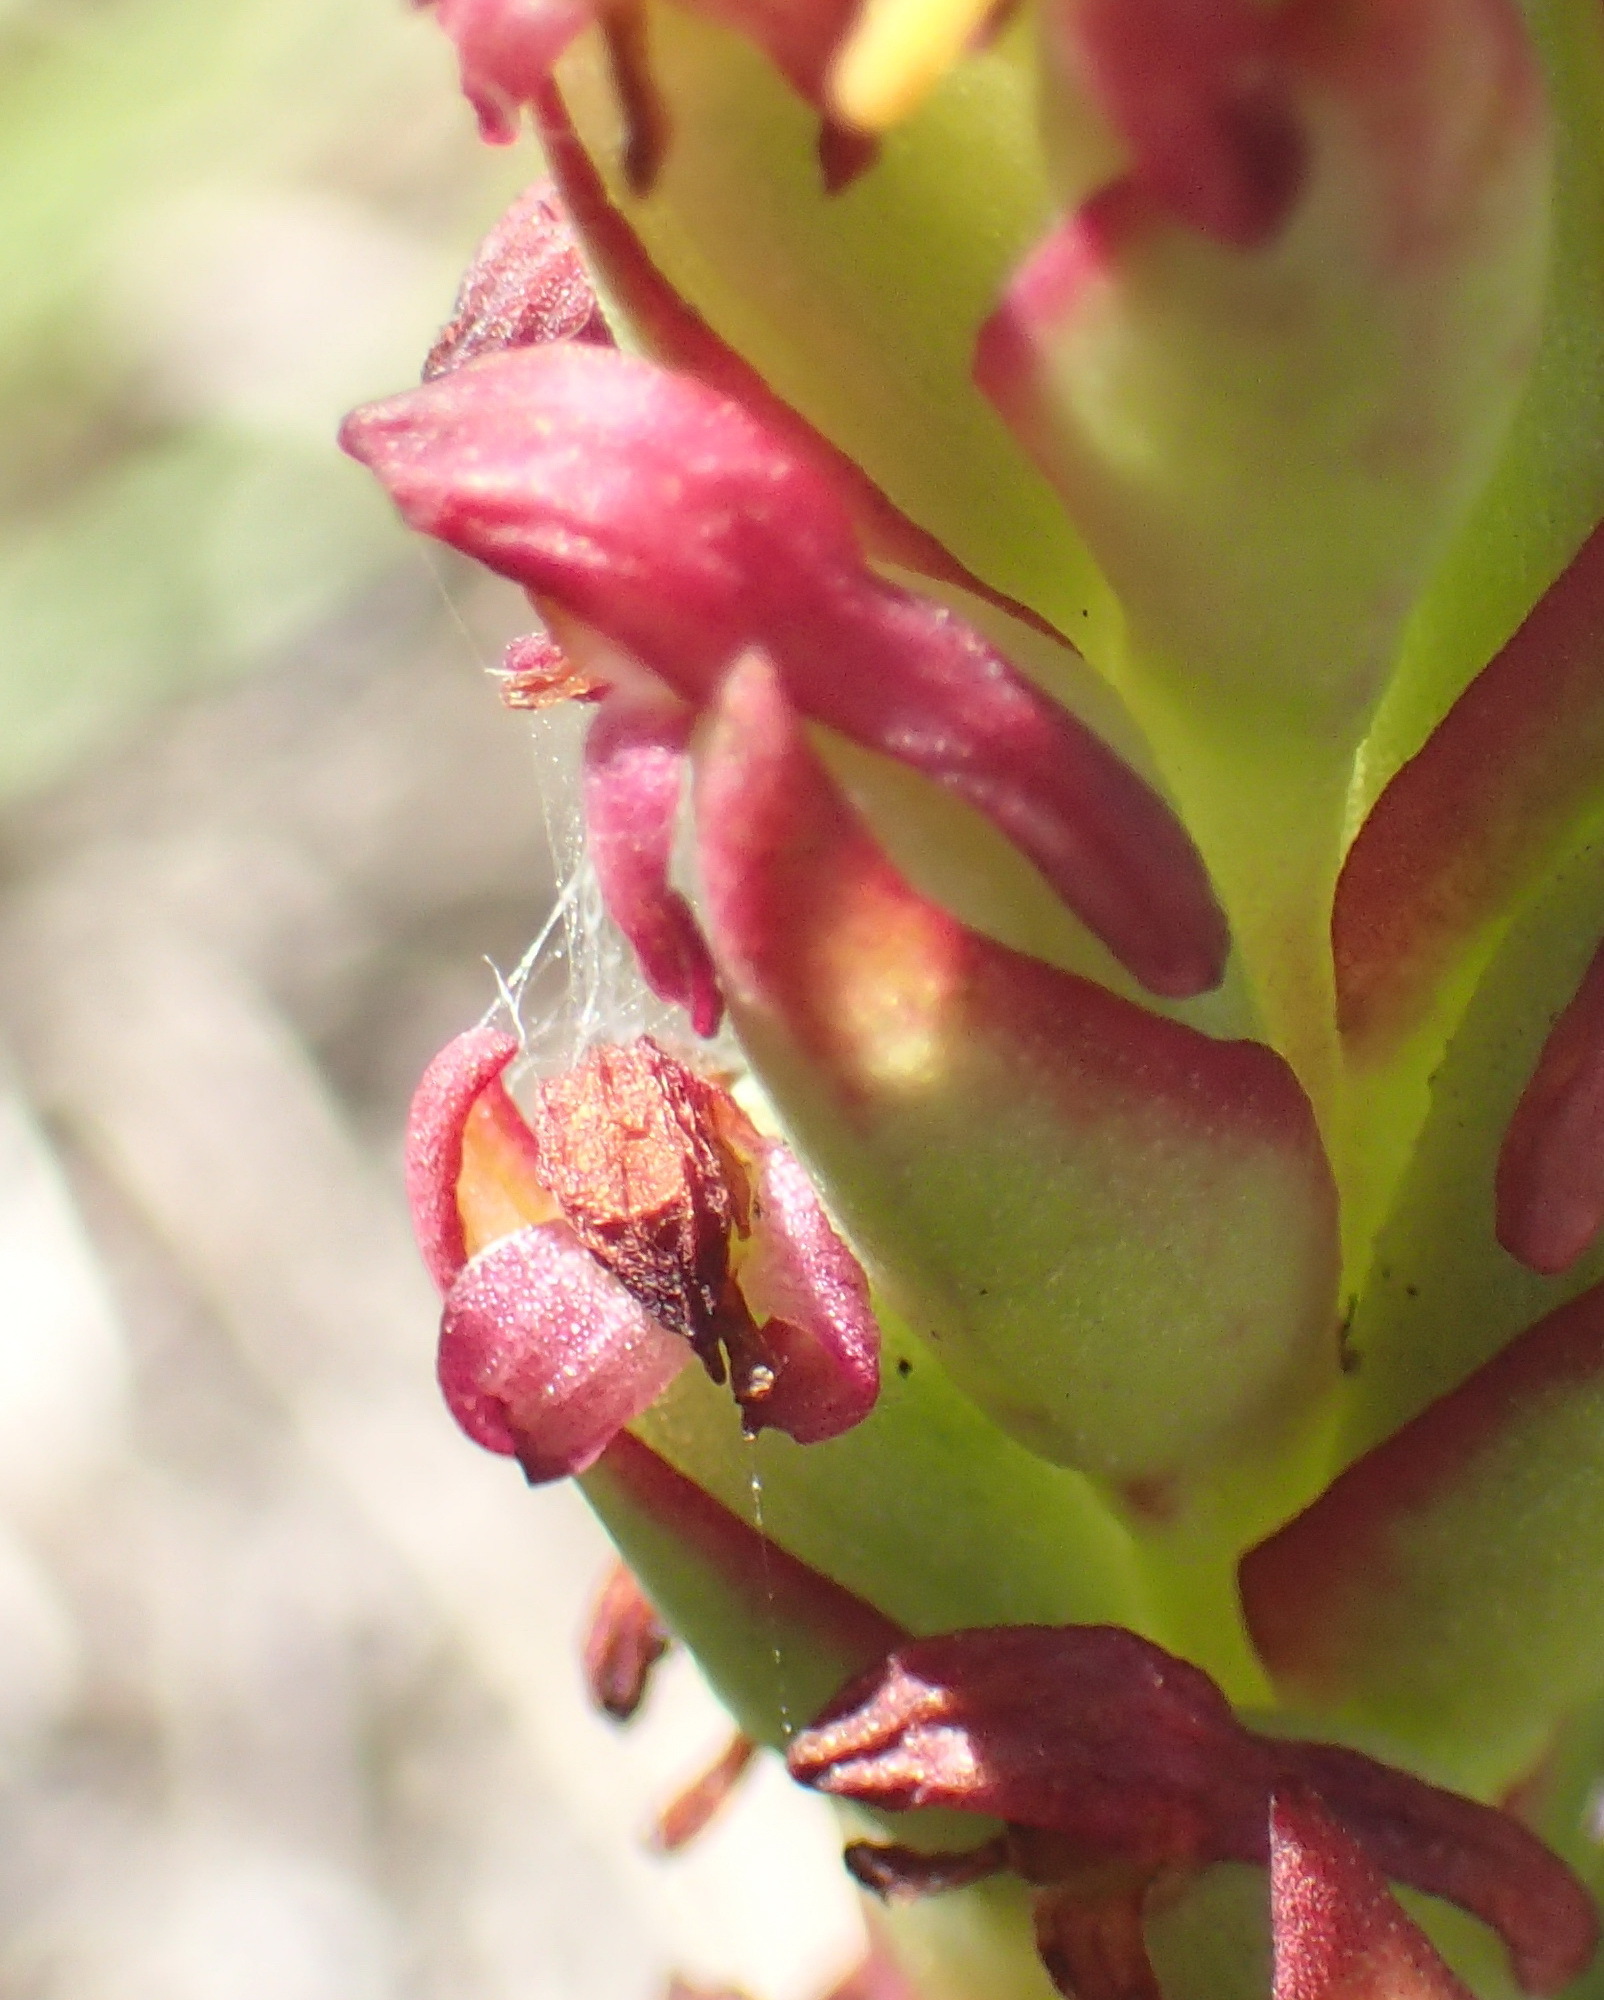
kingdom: Plantae
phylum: Tracheophyta
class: Liliopsida
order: Asparagales
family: Orchidaceae
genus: Disa
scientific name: Disa bracteata
